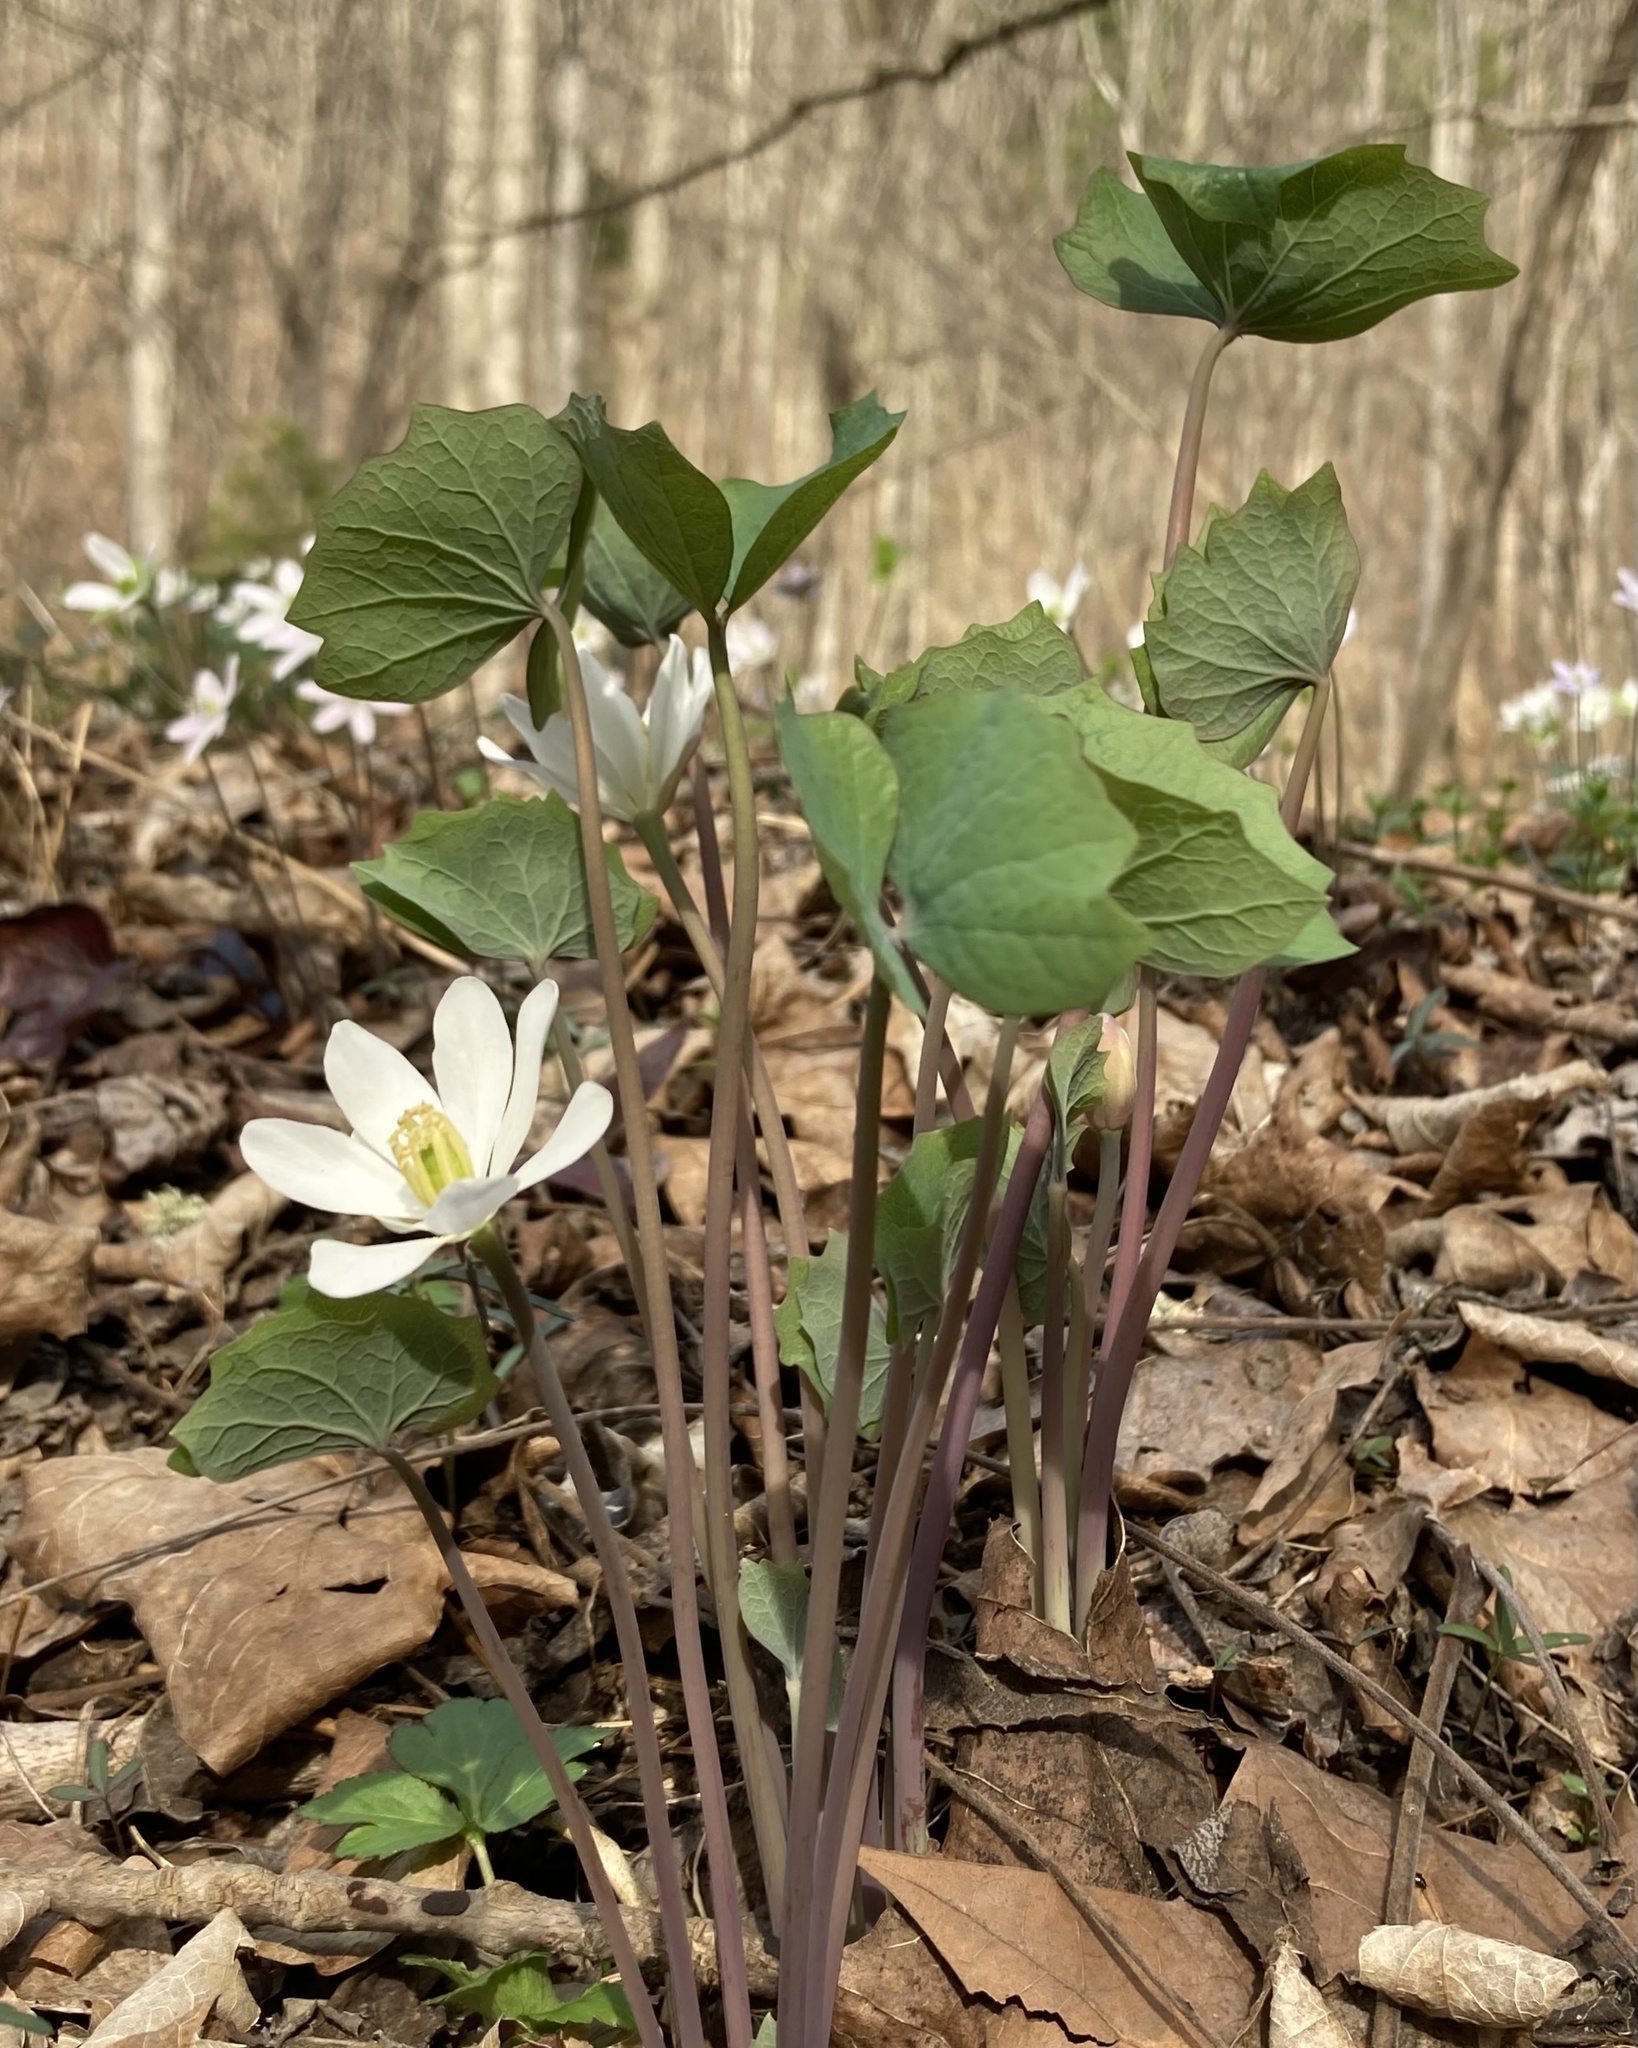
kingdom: Plantae
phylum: Tracheophyta
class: Magnoliopsida
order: Ranunculales
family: Berberidaceae
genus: Jeffersonia
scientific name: Jeffersonia diphylla
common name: Rheumatism-root
